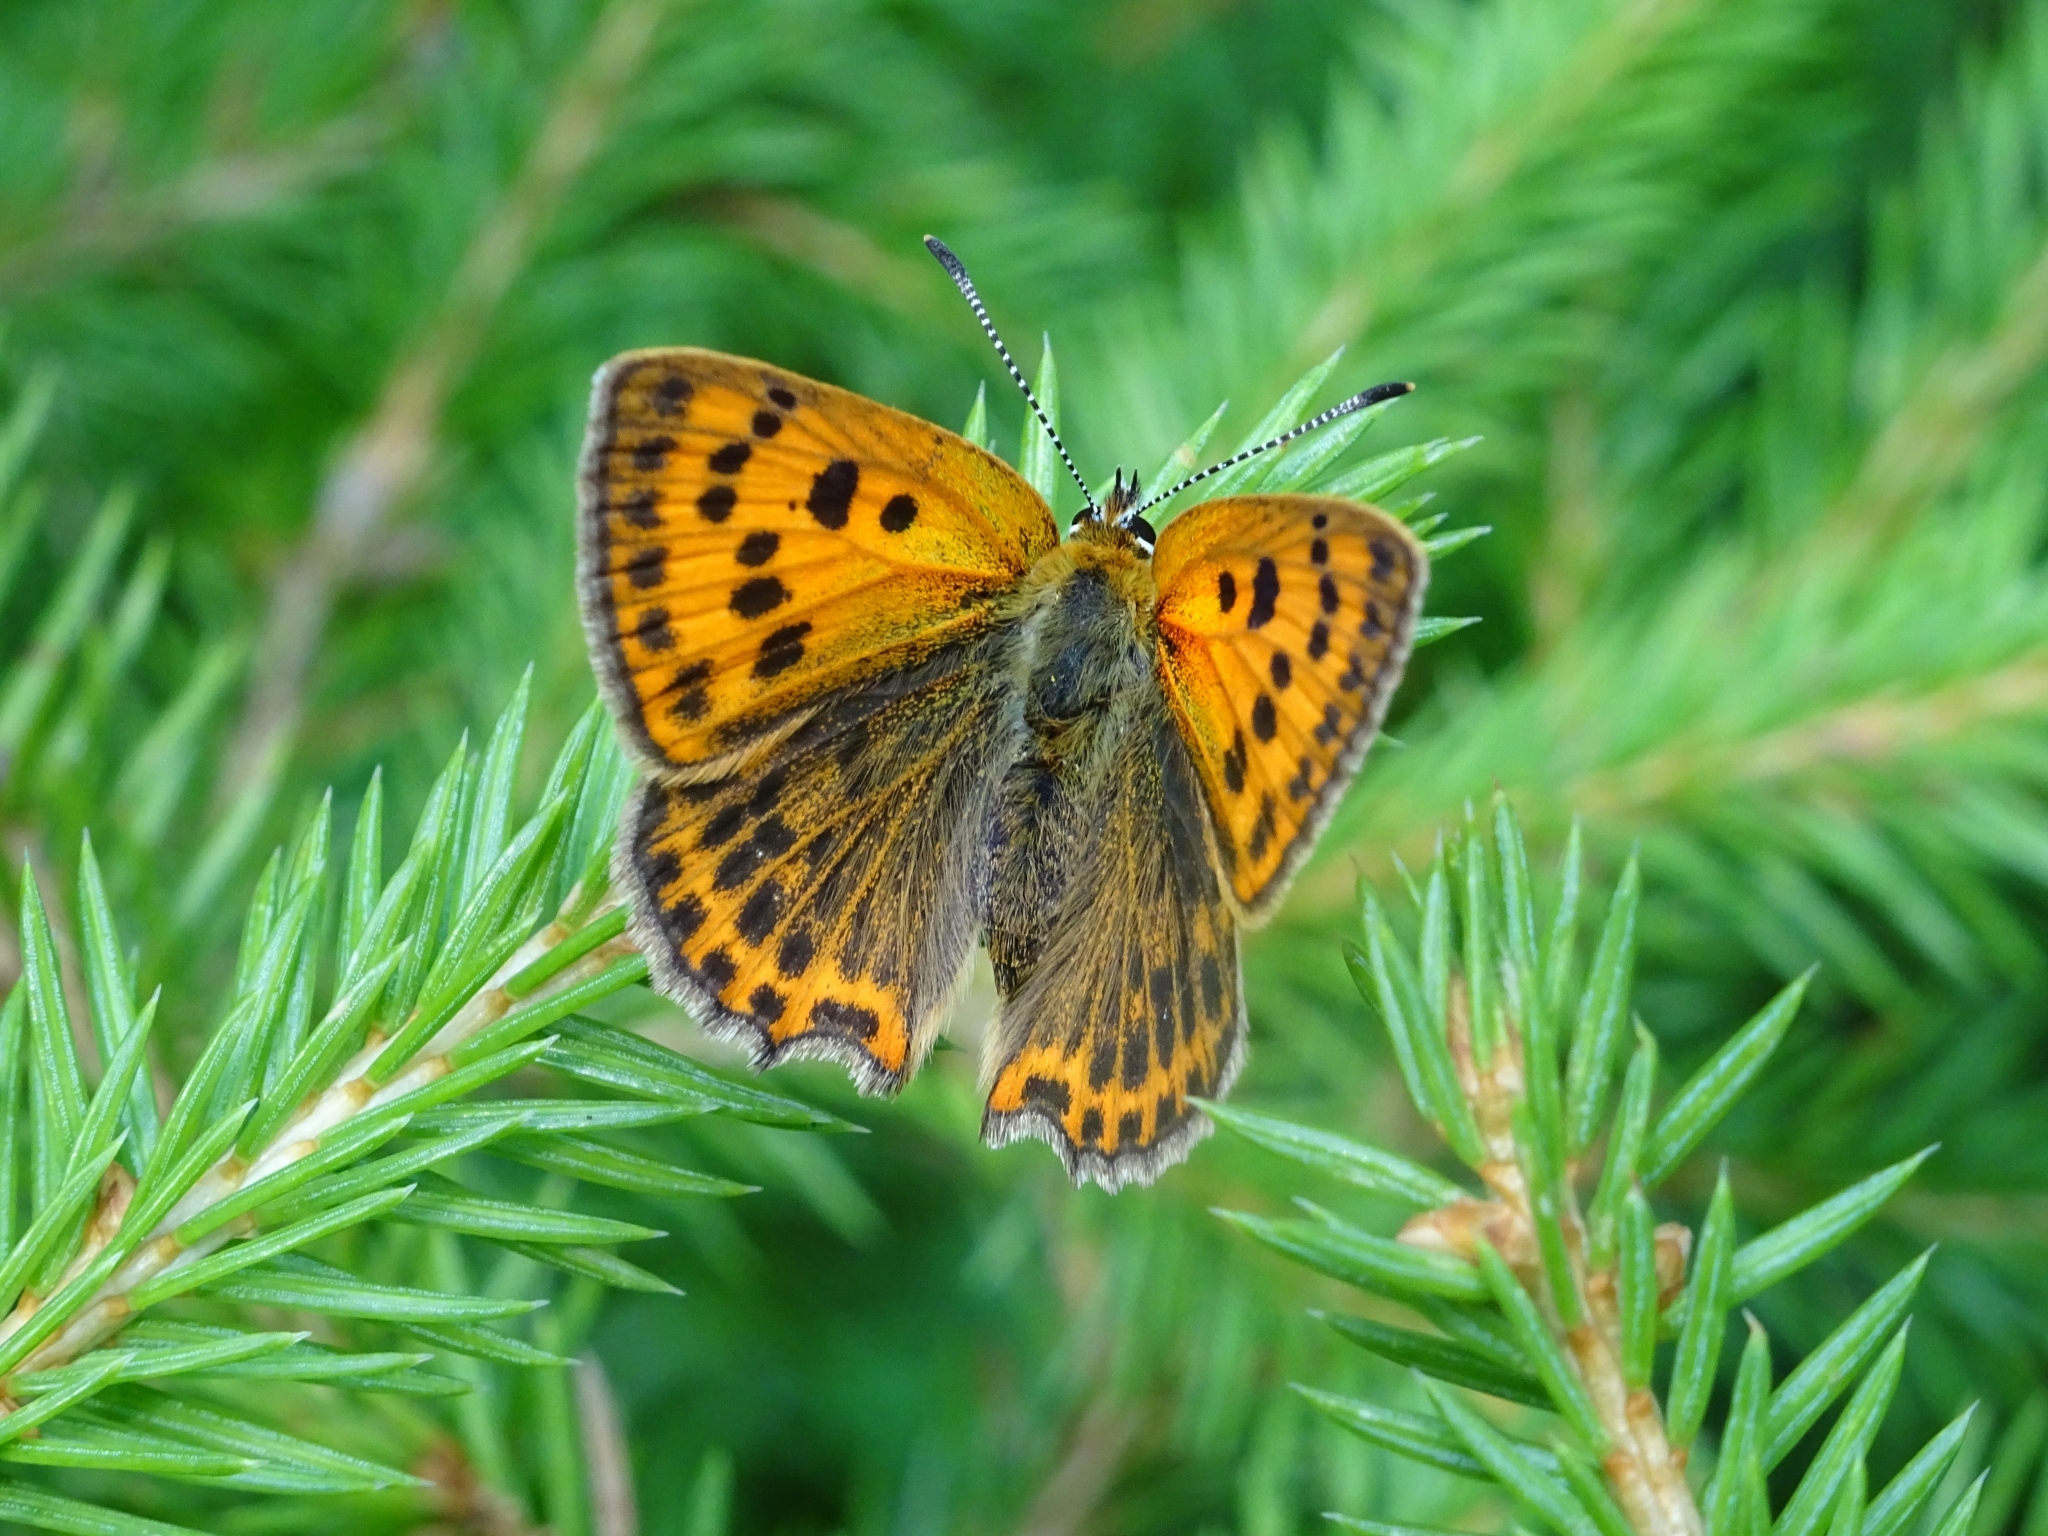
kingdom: Animalia
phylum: Arthropoda
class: Insecta
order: Lepidoptera
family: Lycaenidae
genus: Lycaena
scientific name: Lycaena virgaureae
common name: Scarce copper
